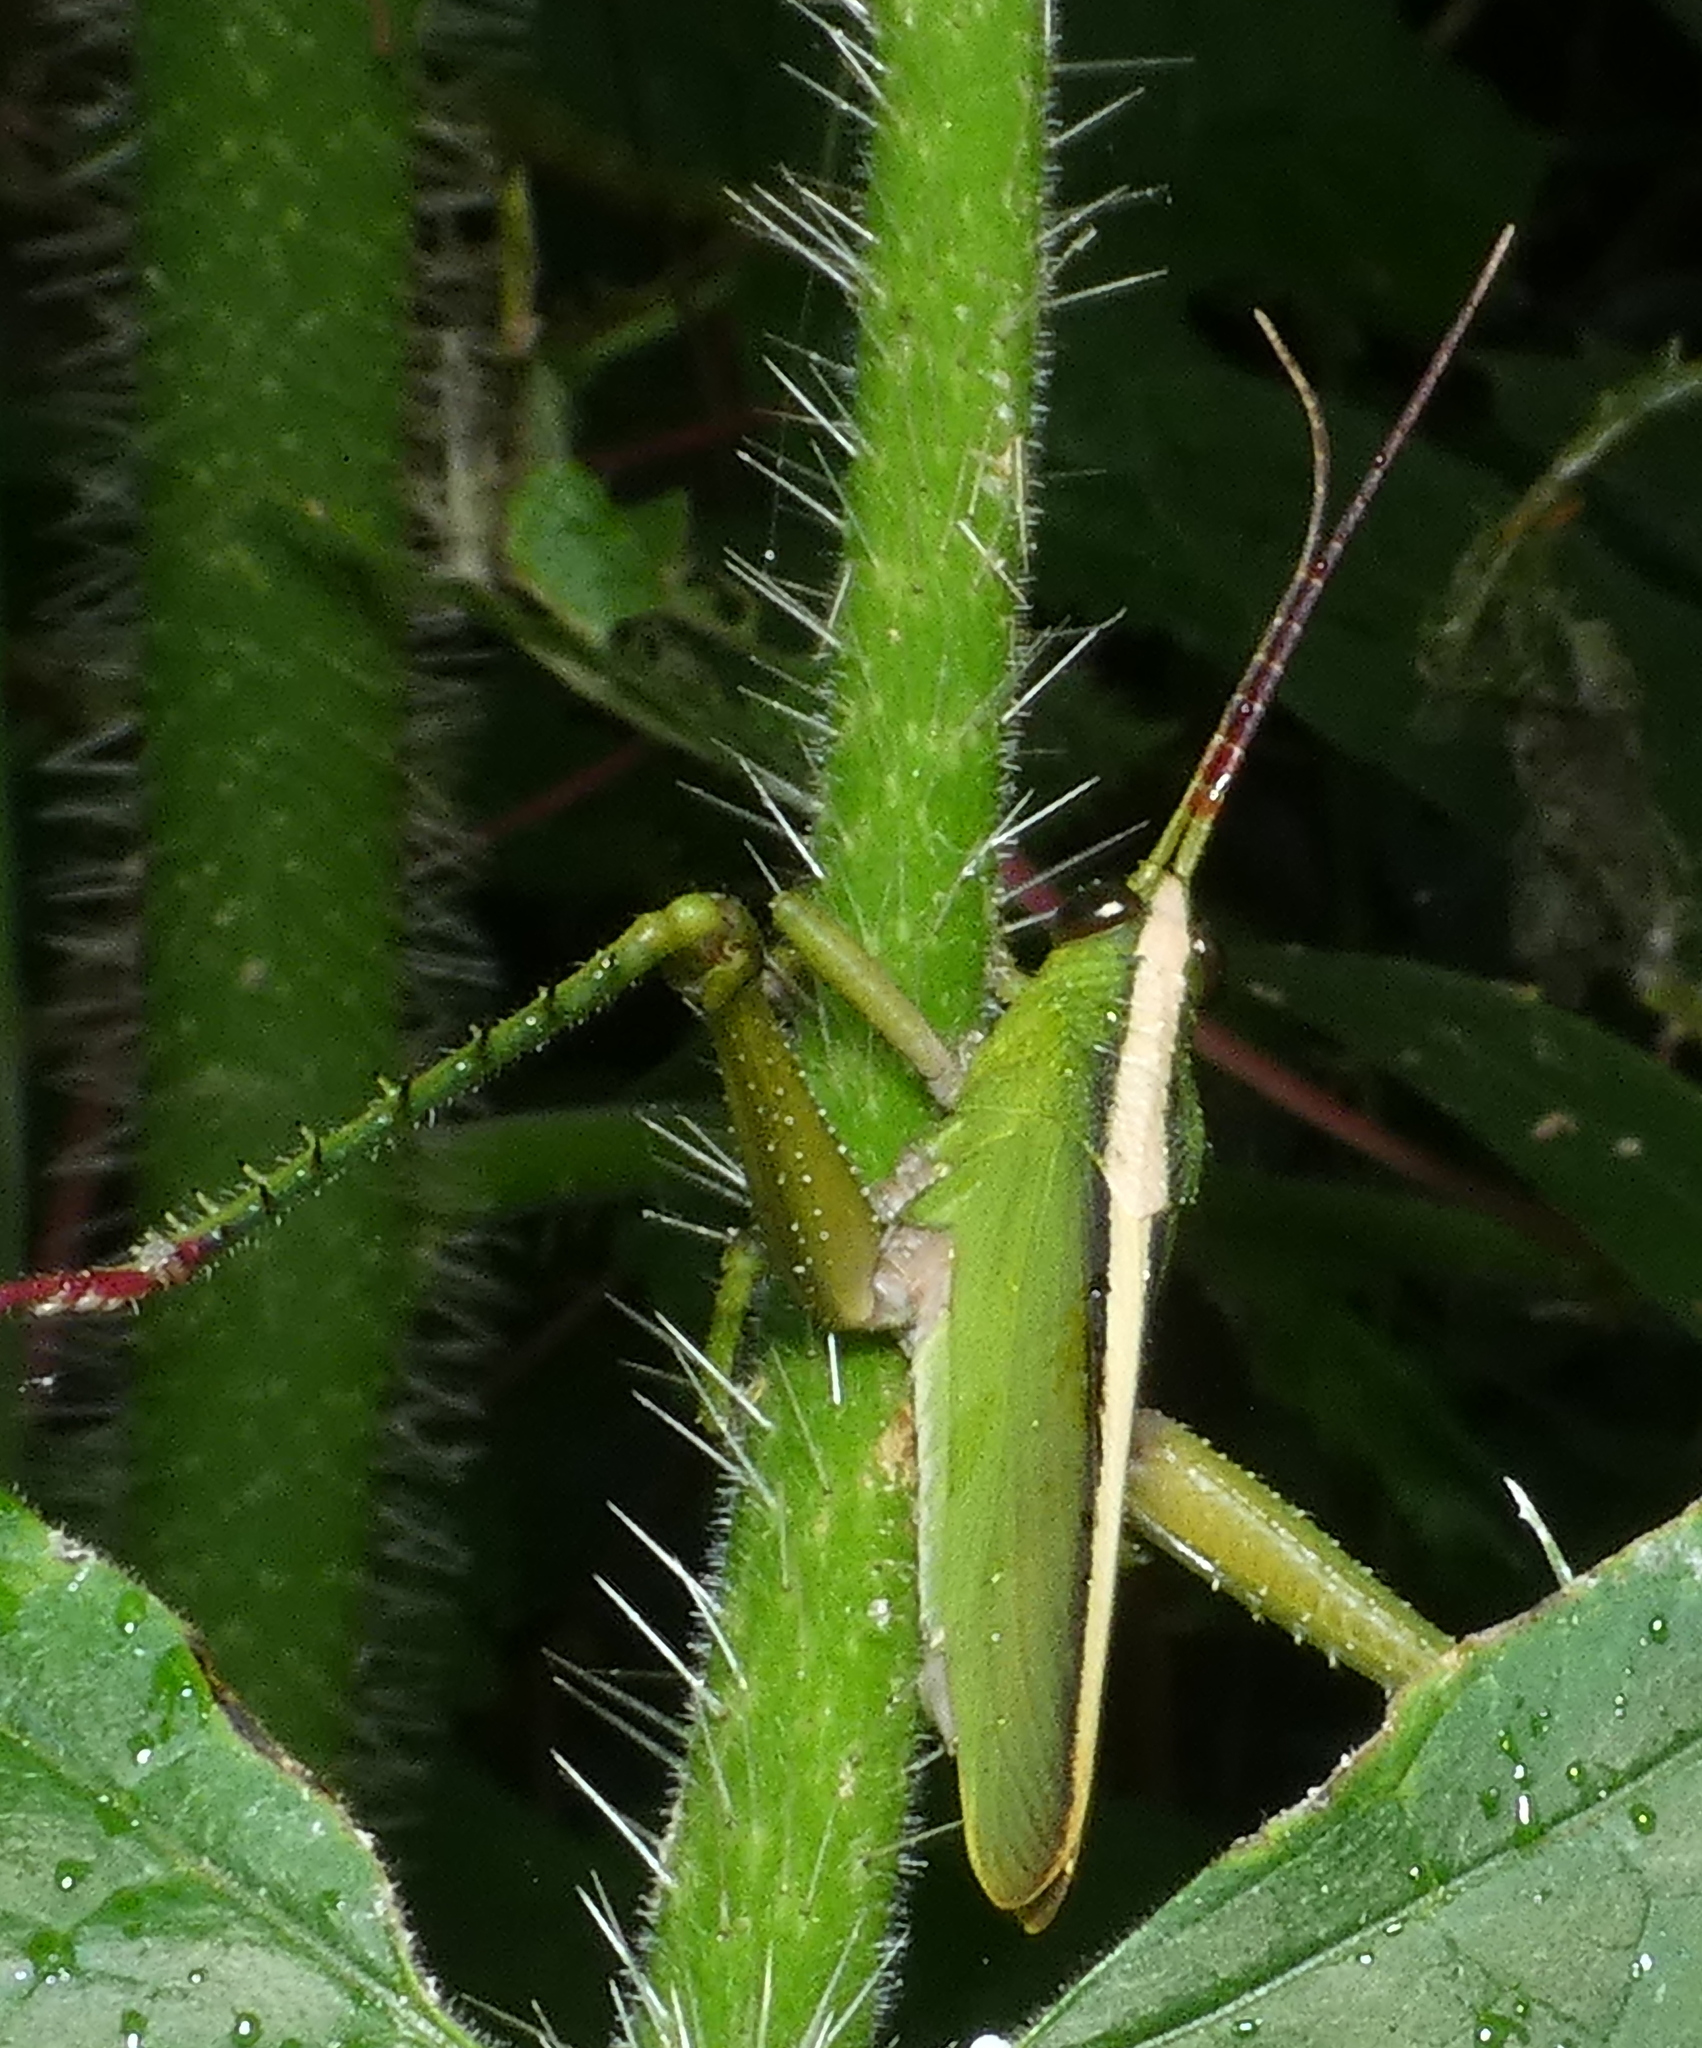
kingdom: Animalia
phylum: Arthropoda
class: Insecta
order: Orthoptera
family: Romaleidae
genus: Agriacris
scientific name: Agriacris auripennis
